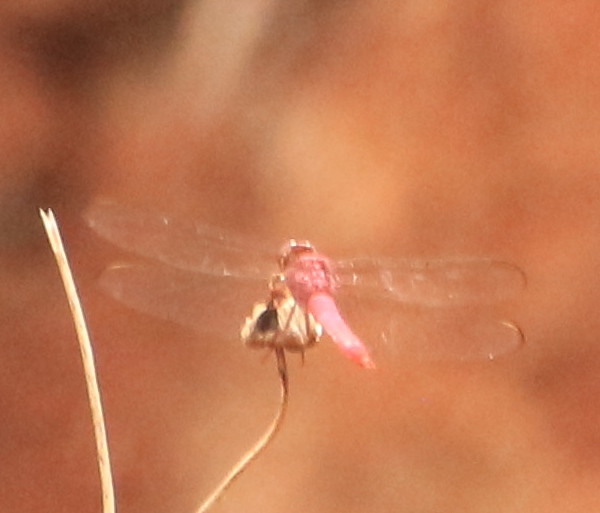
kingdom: Animalia
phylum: Arthropoda
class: Insecta
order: Odonata
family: Libellulidae
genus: Orthemis
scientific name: Orthemis discolor
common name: Carmine skimmer
